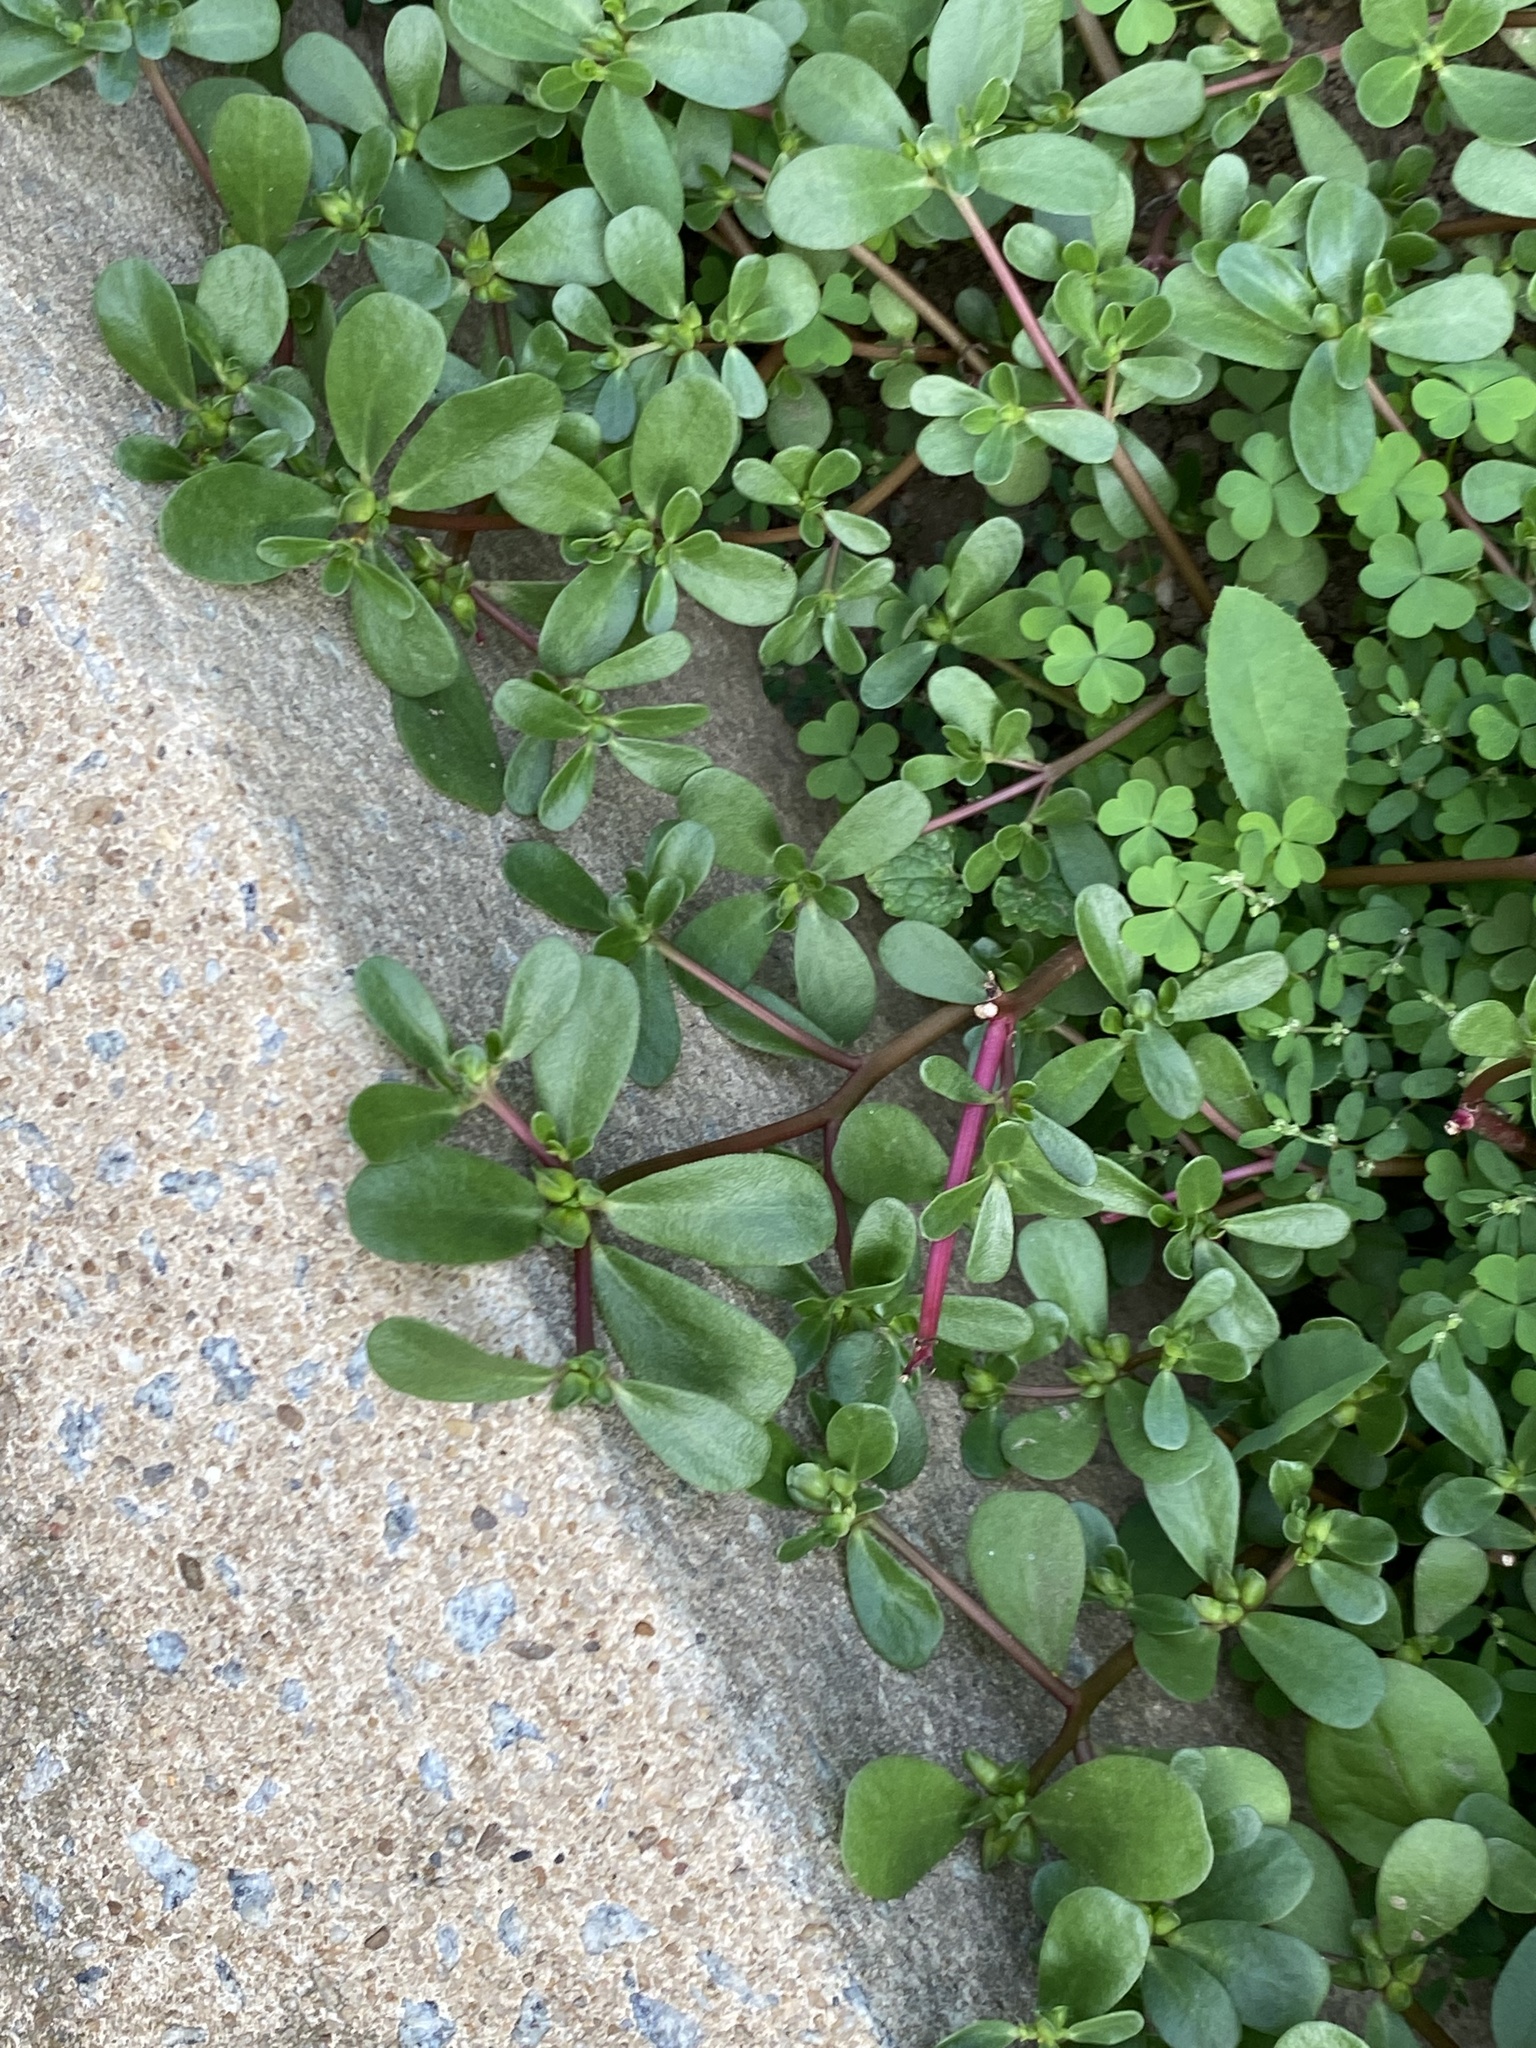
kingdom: Plantae
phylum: Tracheophyta
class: Magnoliopsida
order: Caryophyllales
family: Portulacaceae
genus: Portulaca
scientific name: Portulaca oleracea
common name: Common purslane
